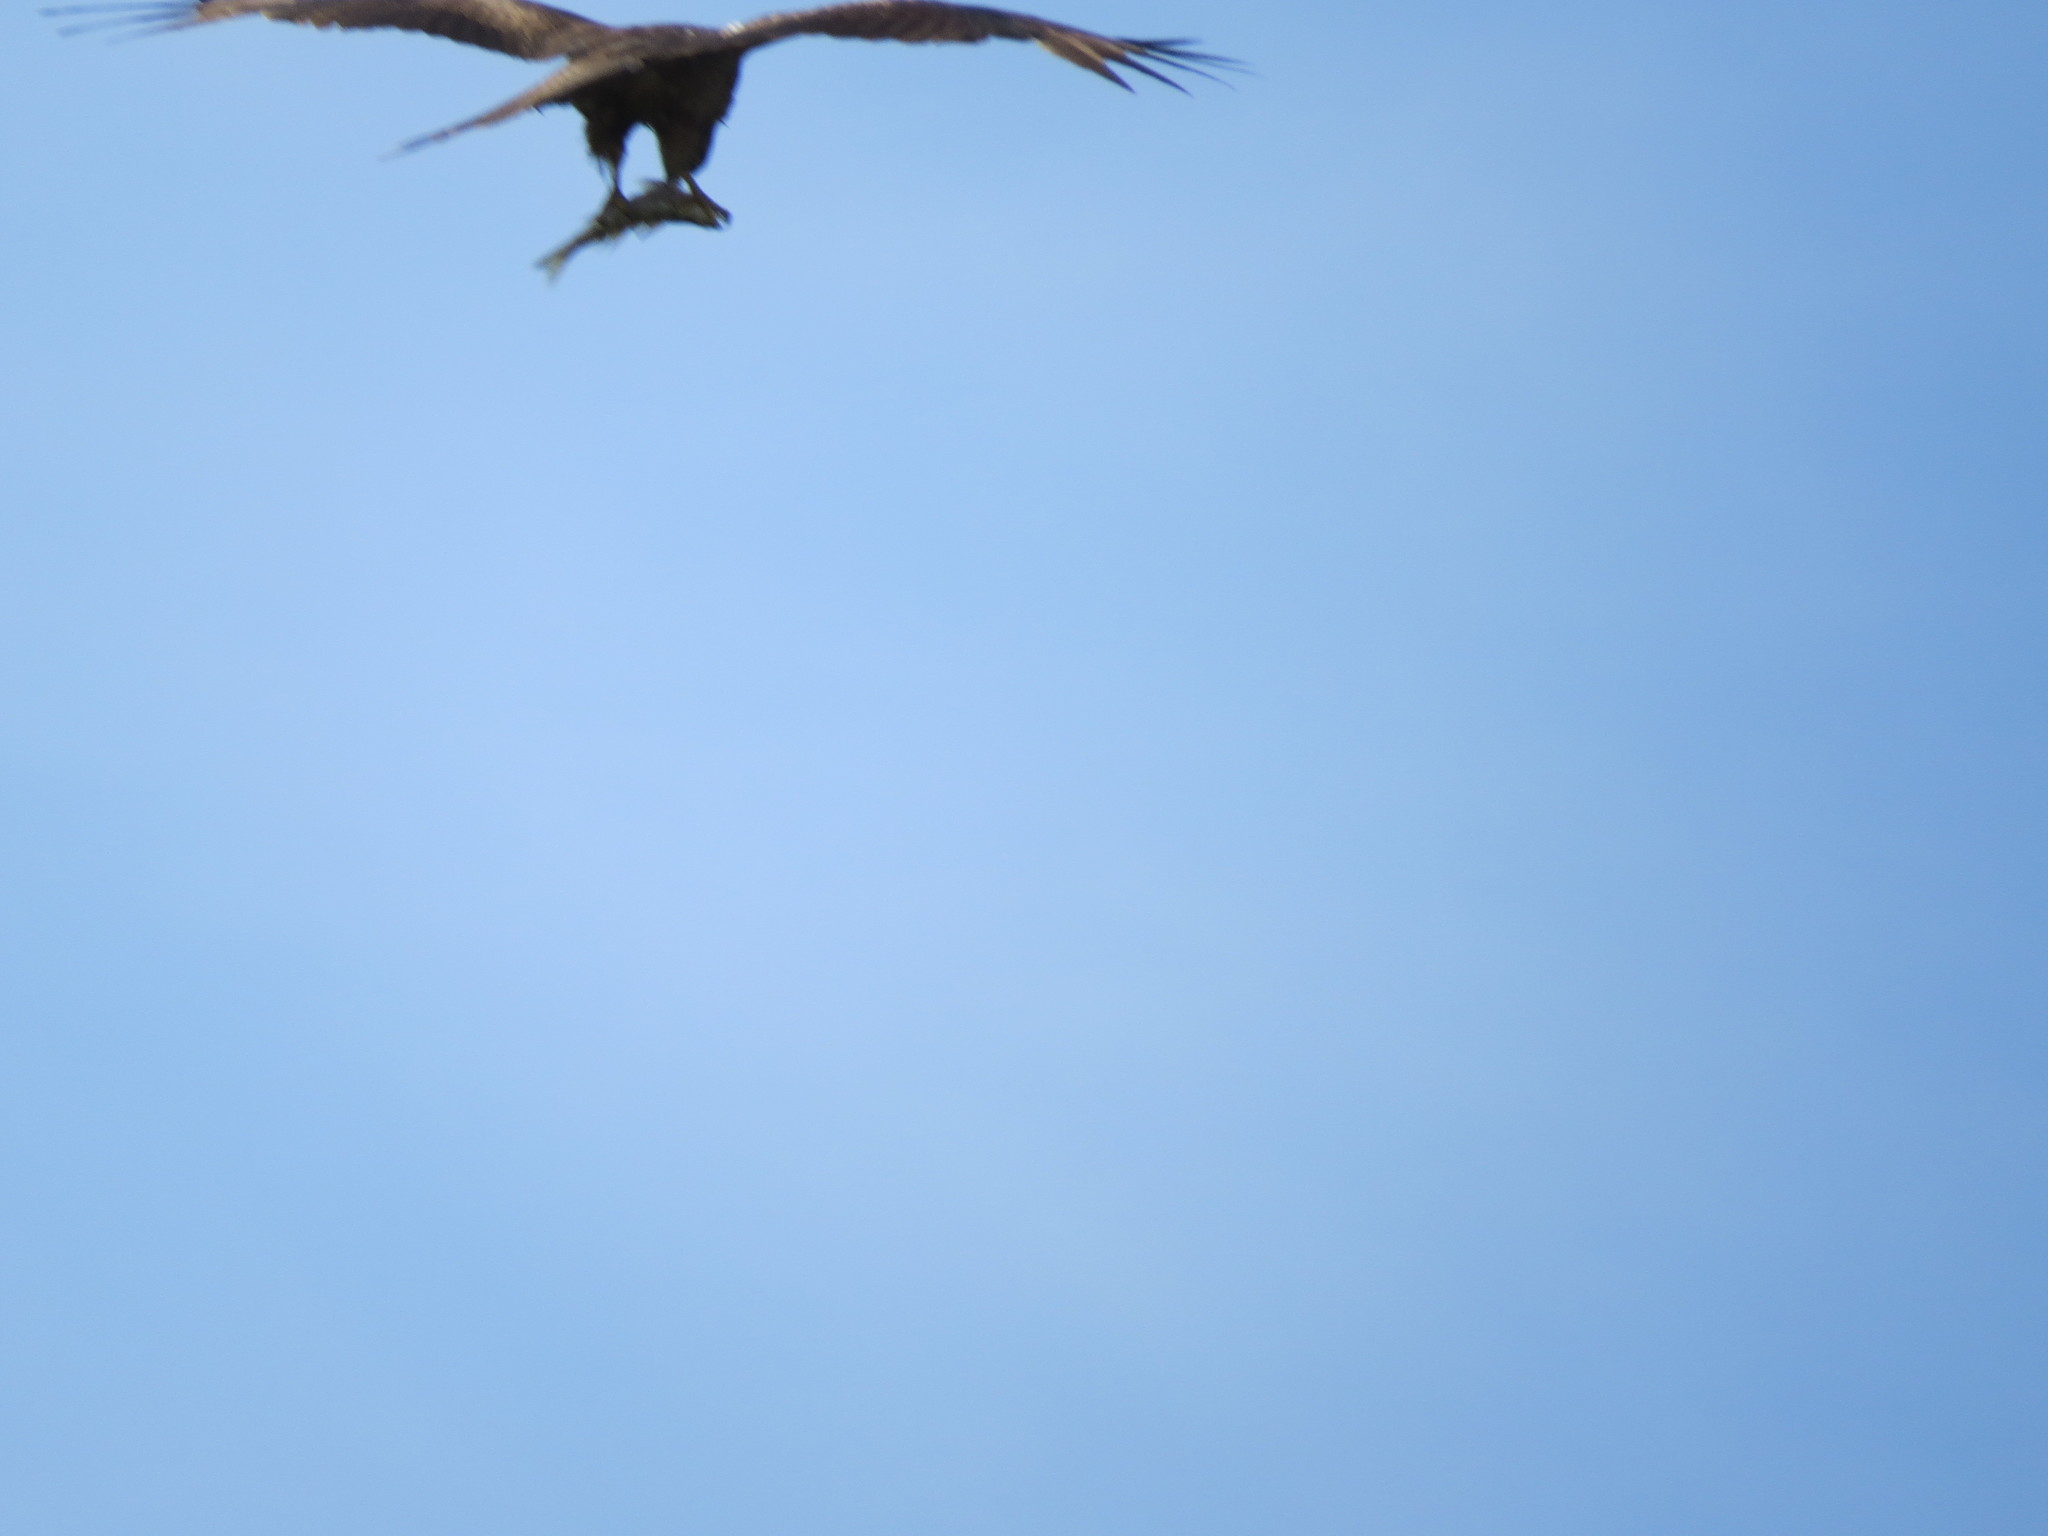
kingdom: Animalia
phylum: Chordata
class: Aves
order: Accipitriformes
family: Accipitridae
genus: Milvus
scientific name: Milvus migrans
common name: Black kite
